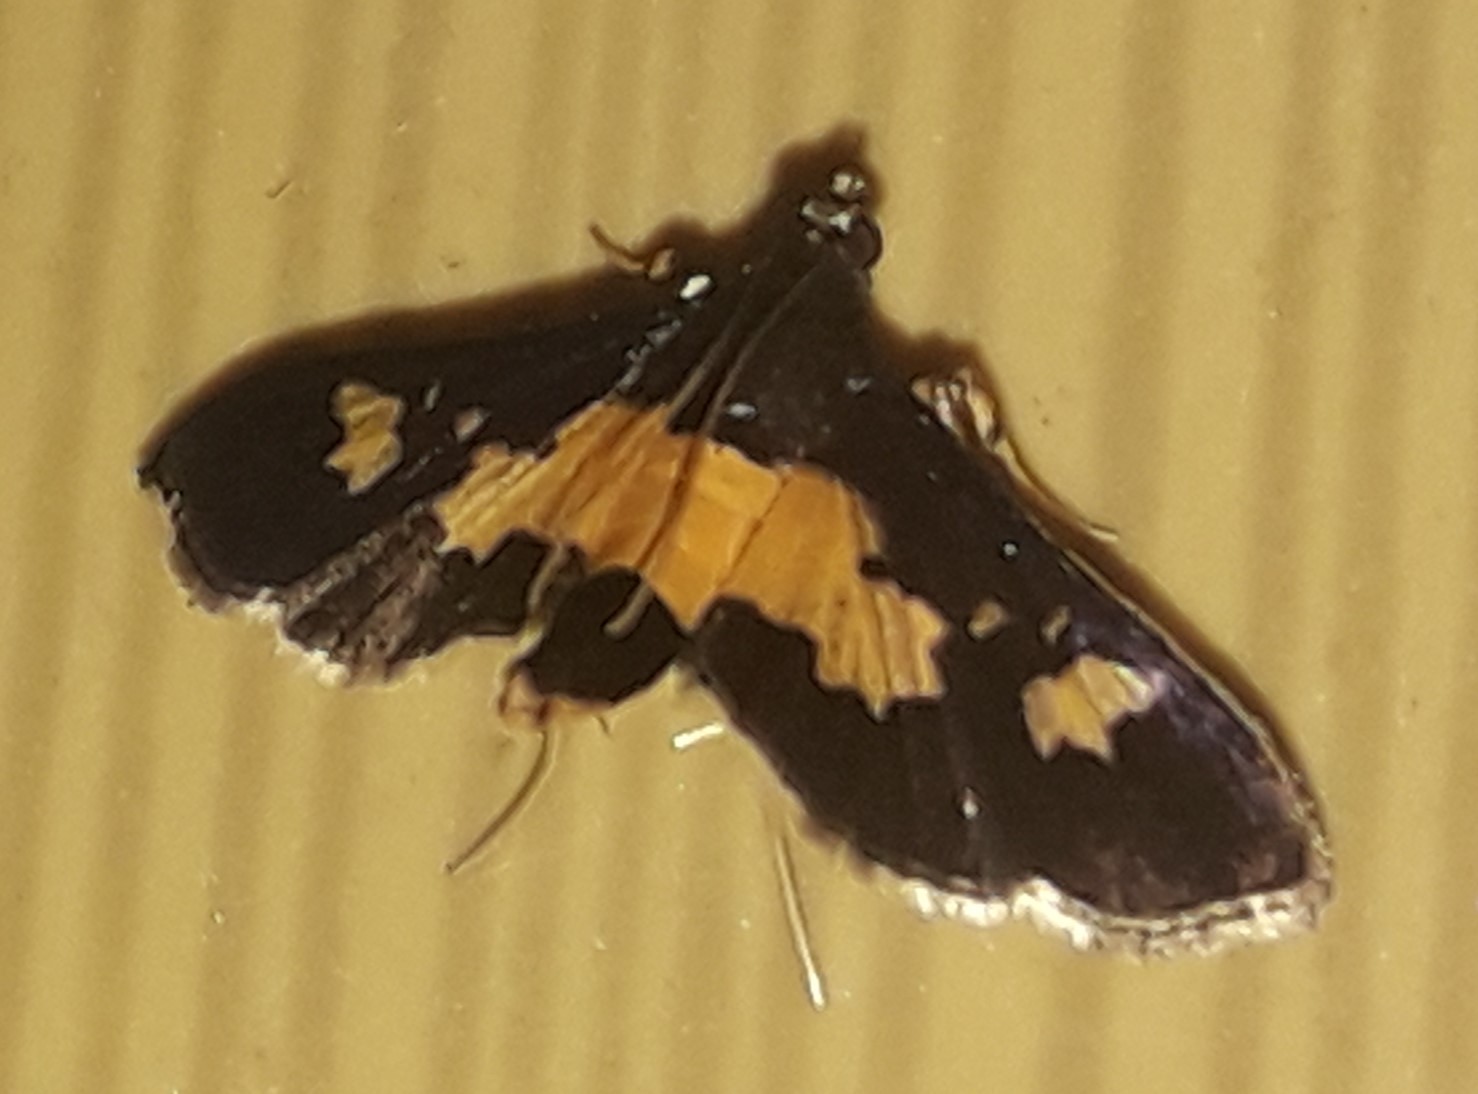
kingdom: Animalia
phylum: Arthropoda
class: Insecta
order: Lepidoptera
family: Crambidae
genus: Salbia
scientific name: Salbia zena
